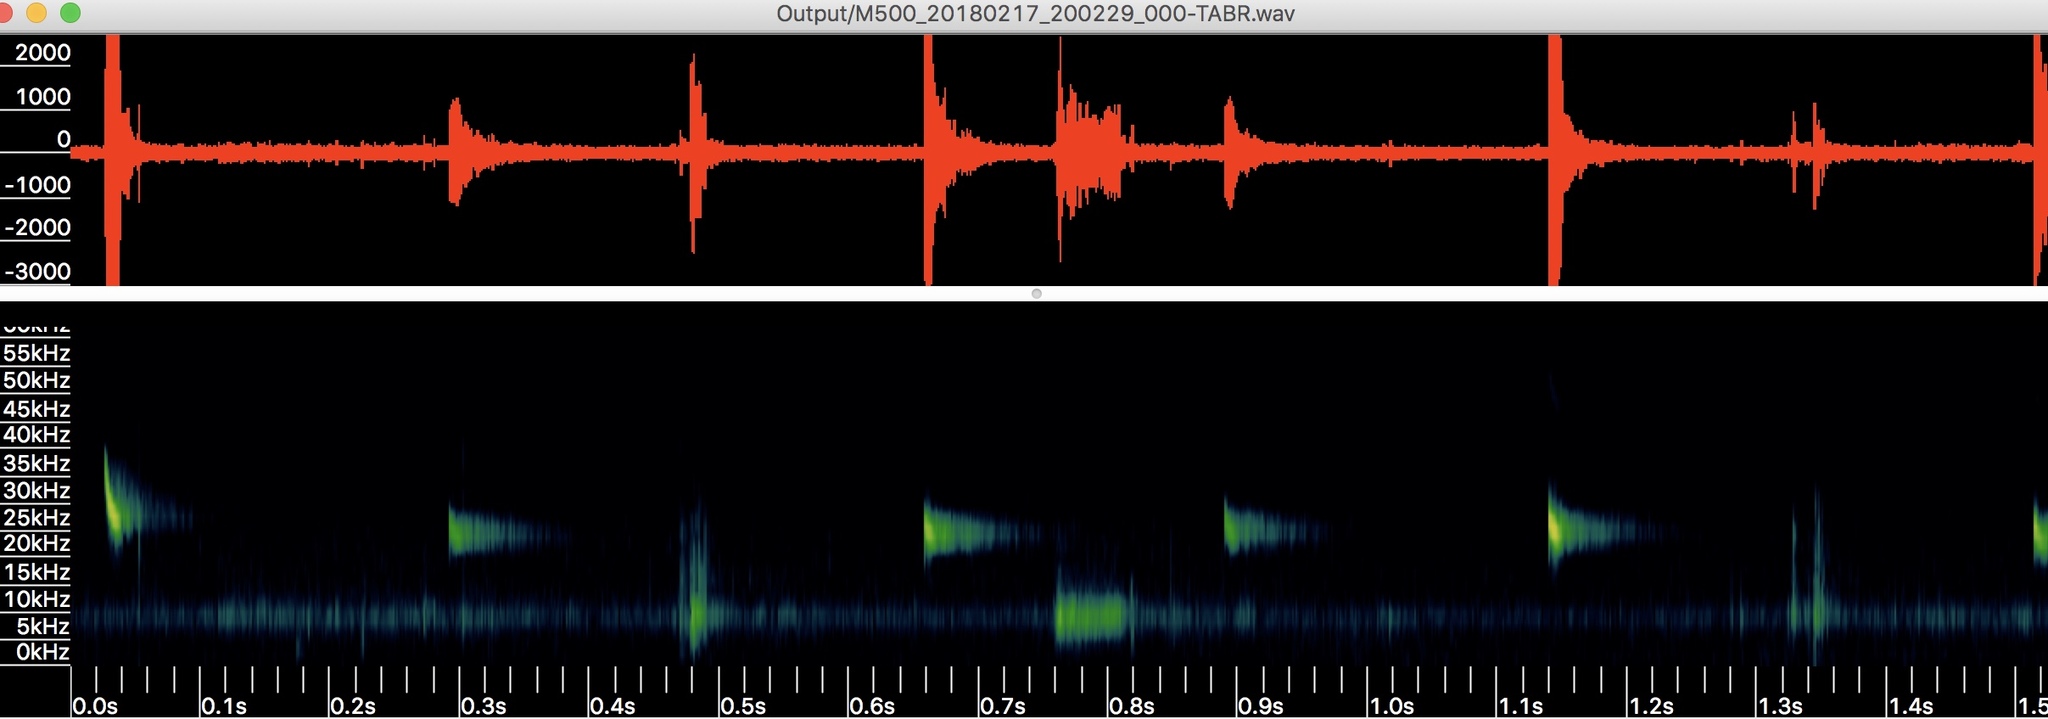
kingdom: Animalia
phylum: Chordata
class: Mammalia
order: Chiroptera
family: Molossidae
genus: Tadarida
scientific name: Tadarida brasiliensis
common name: Mexican free-tailed bat
